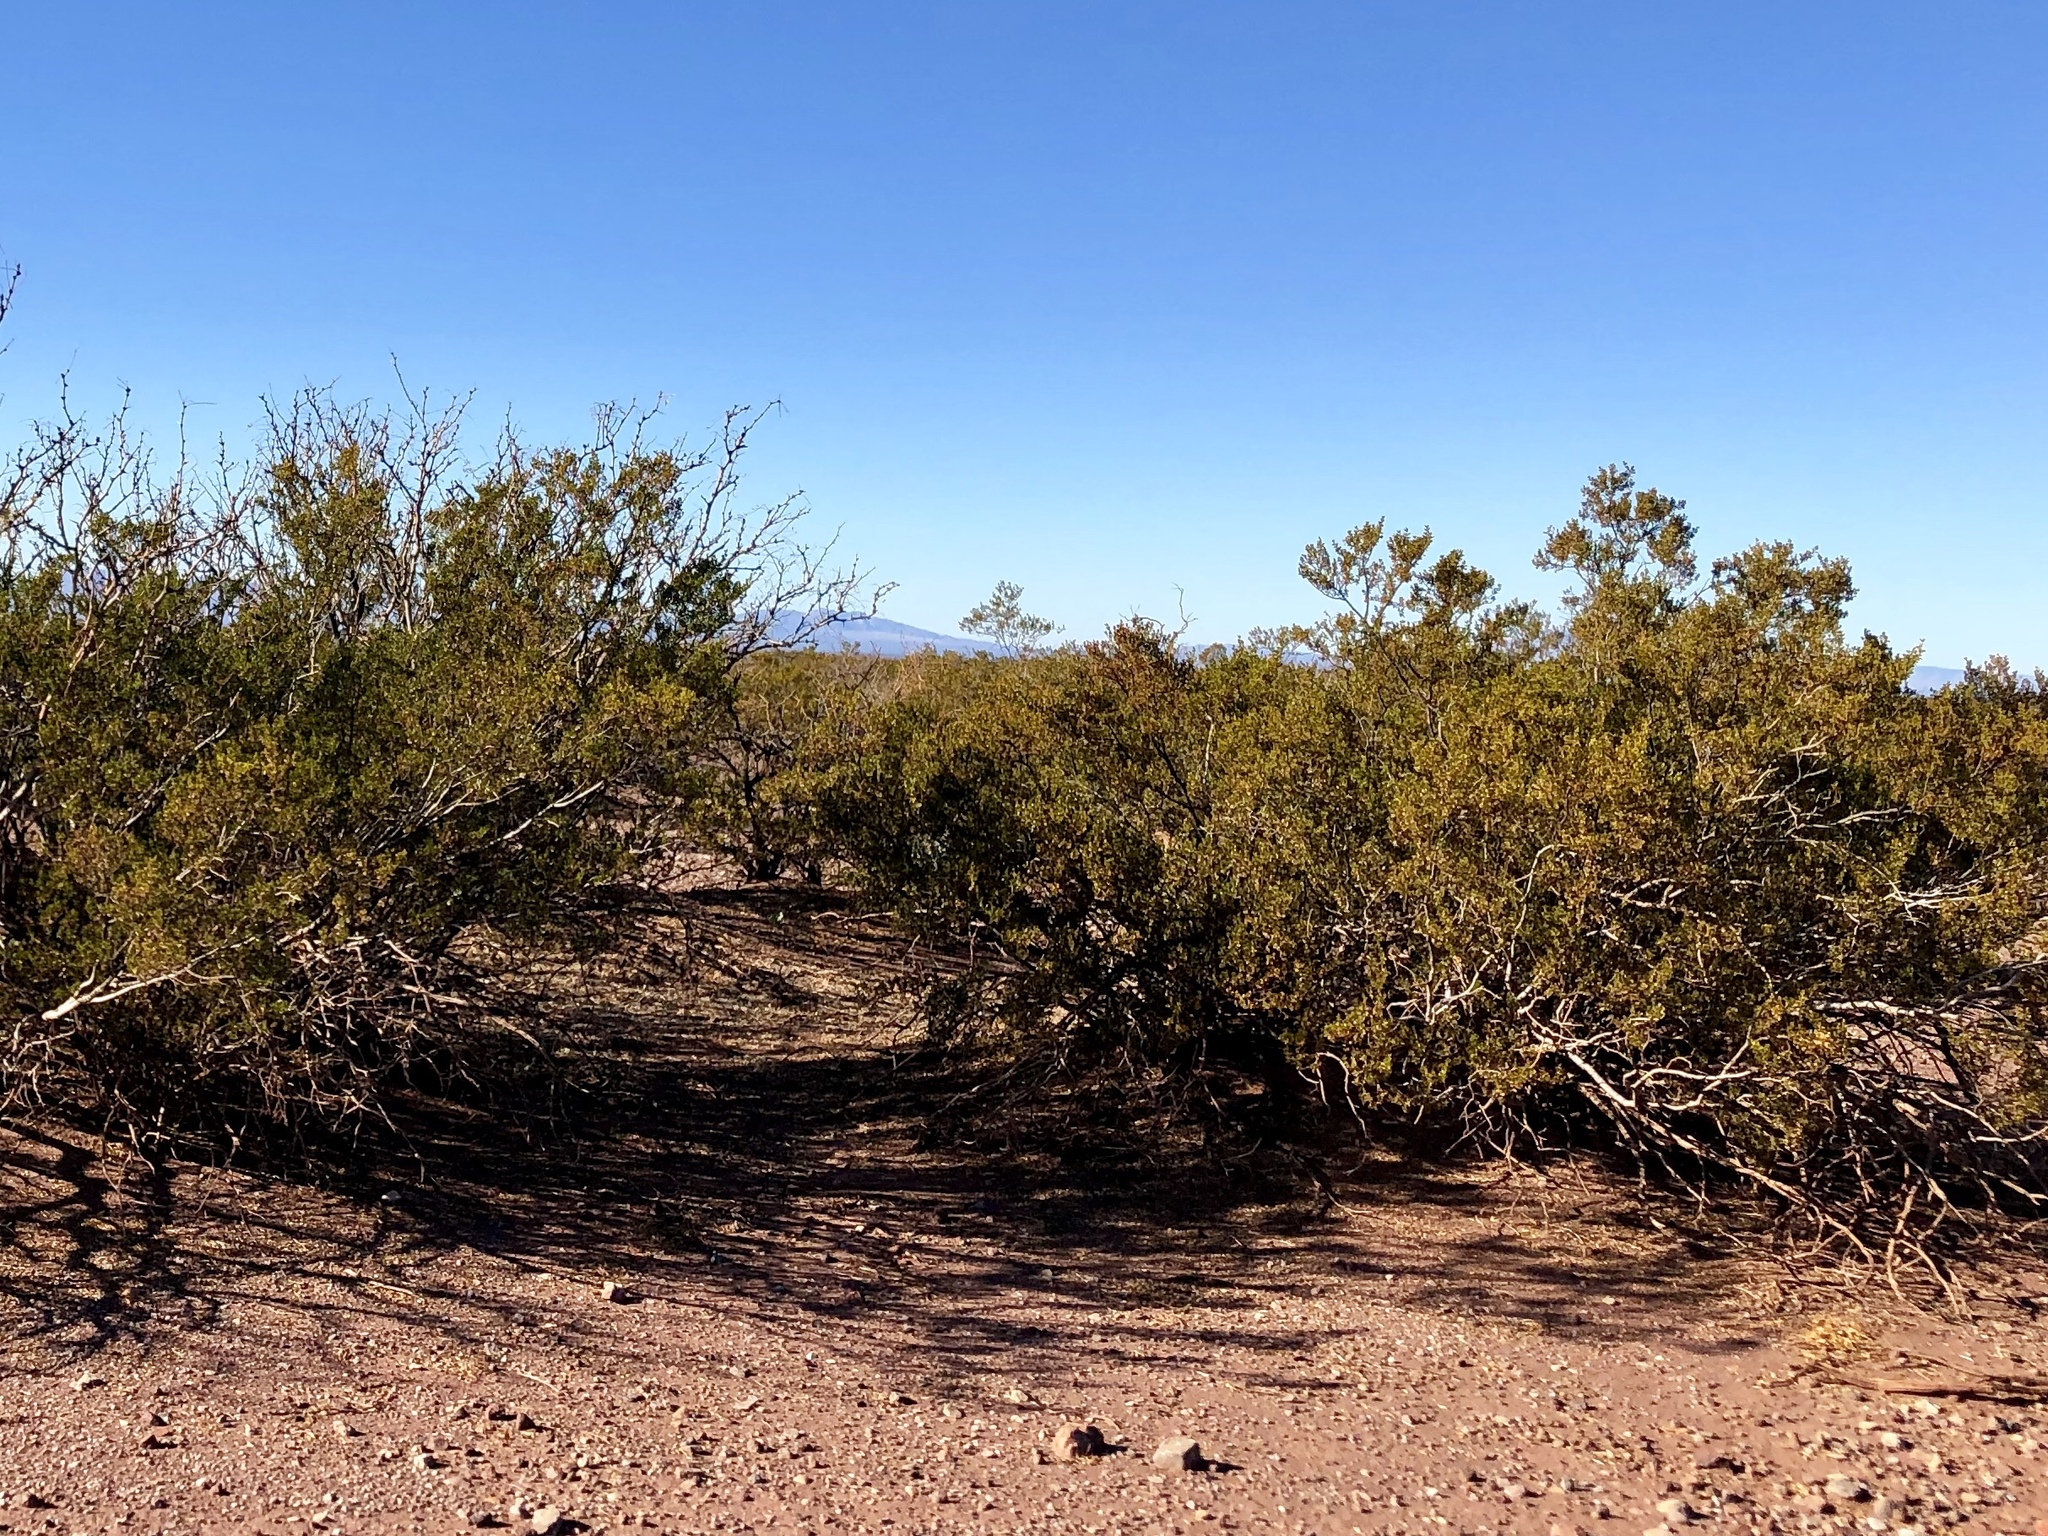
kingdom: Plantae
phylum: Tracheophyta
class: Magnoliopsida
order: Zygophyllales
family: Zygophyllaceae
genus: Larrea
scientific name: Larrea tridentata
